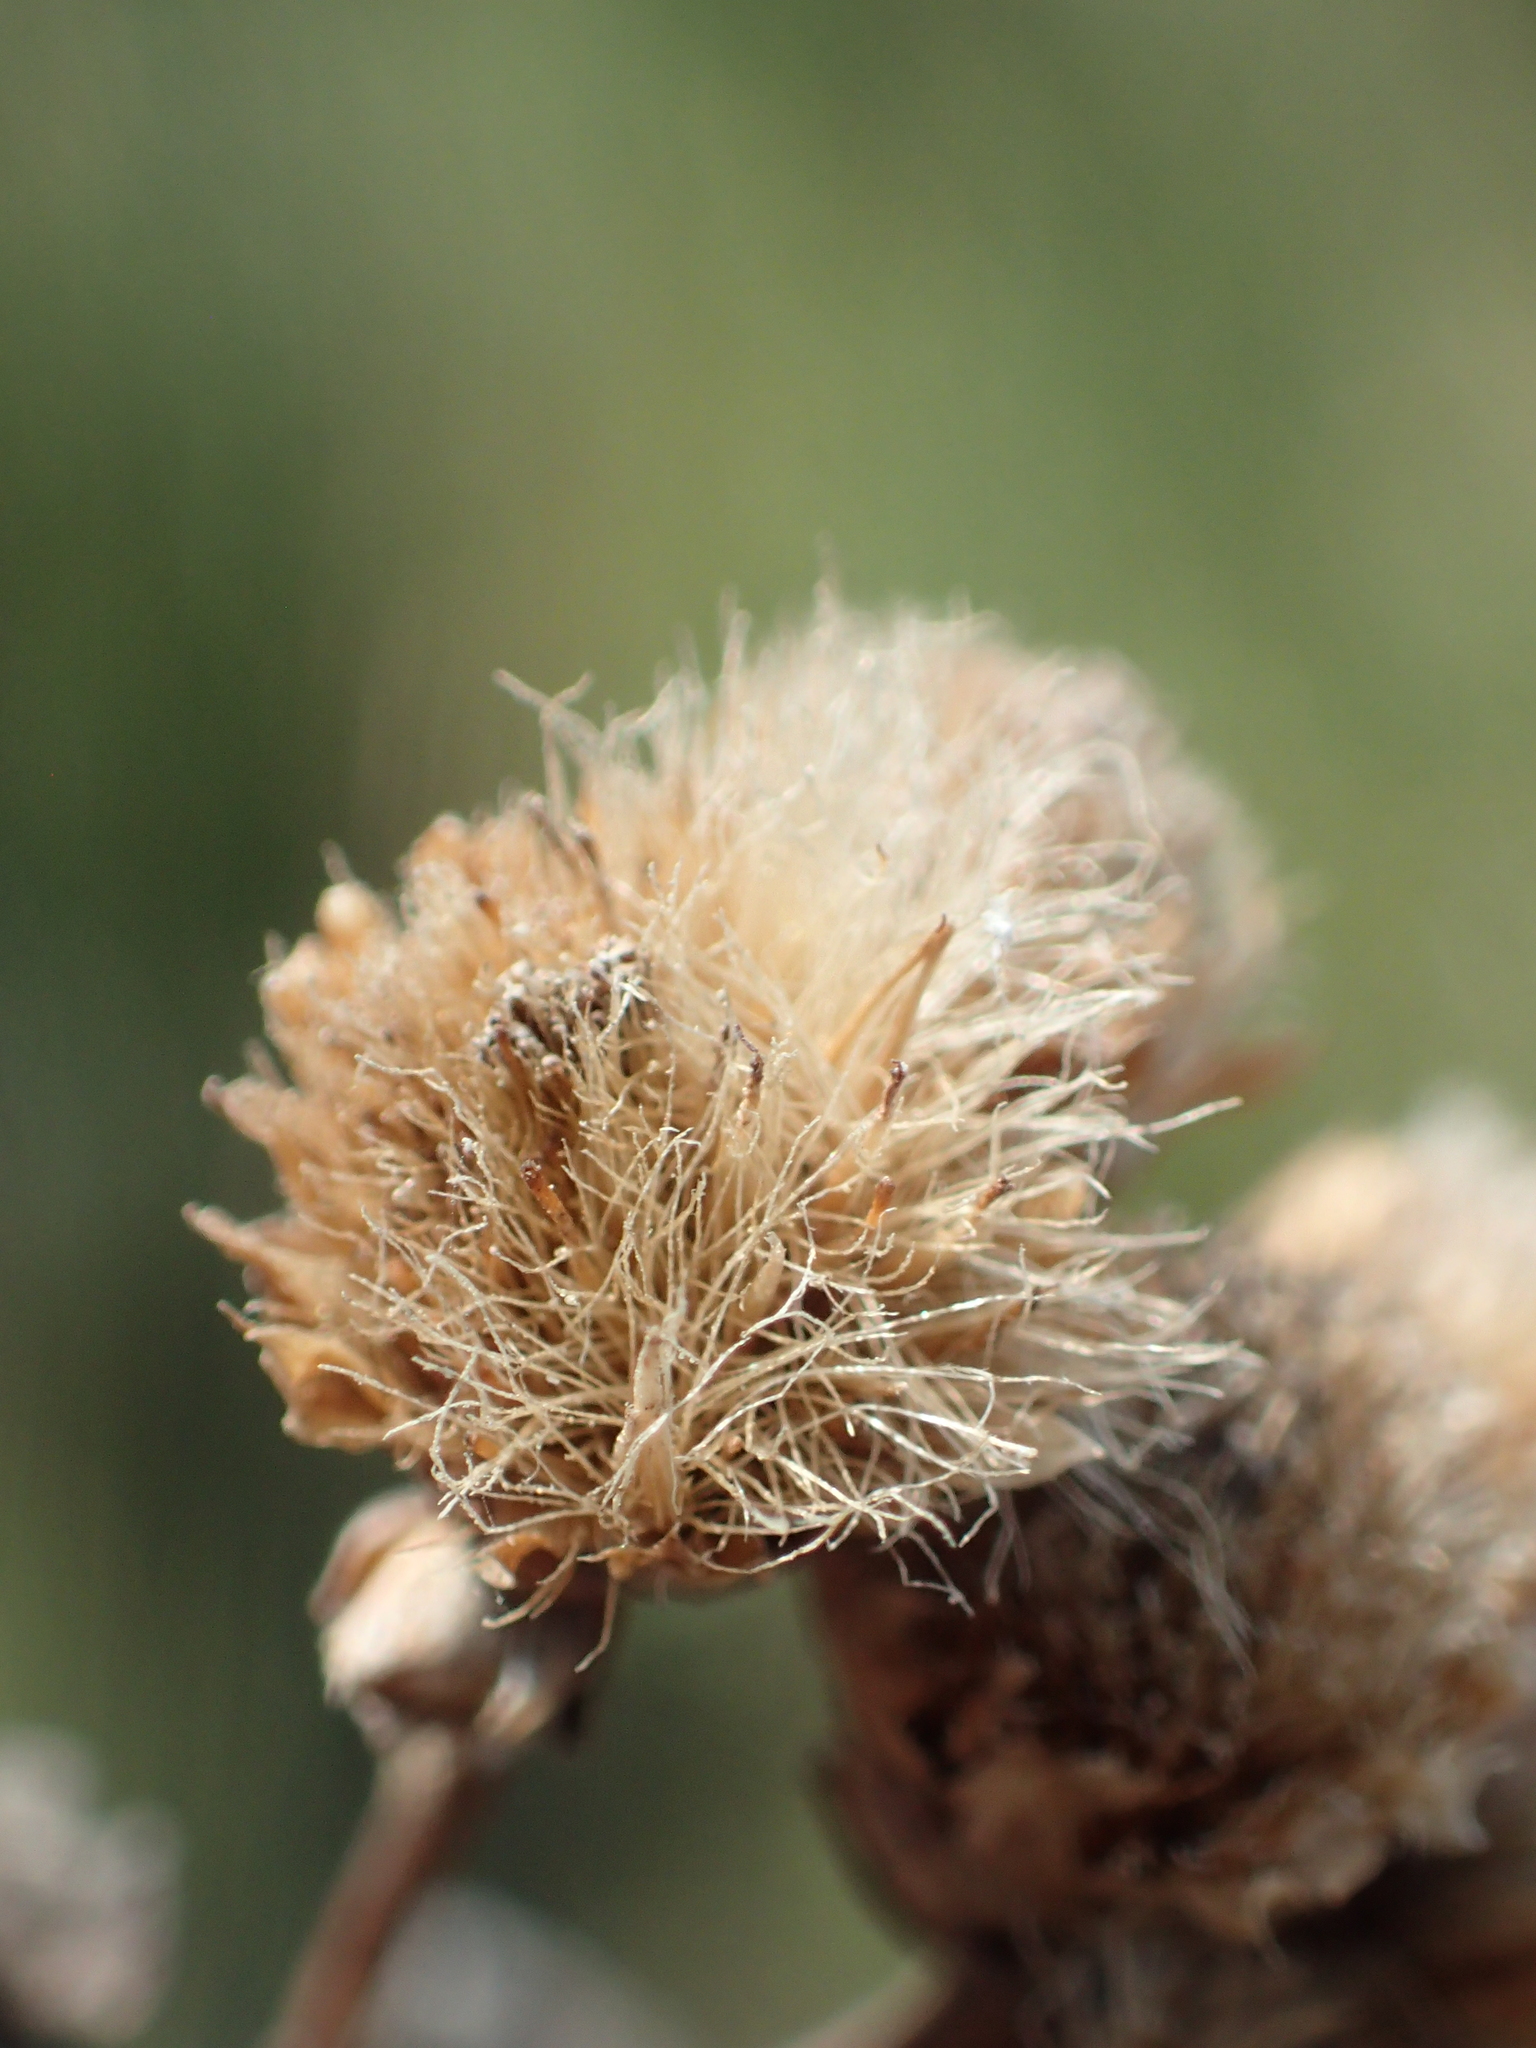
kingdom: Plantae
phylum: Tracheophyta
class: Magnoliopsida
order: Asterales
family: Asteraceae
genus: Pluchea
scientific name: Pluchea pteropoda
